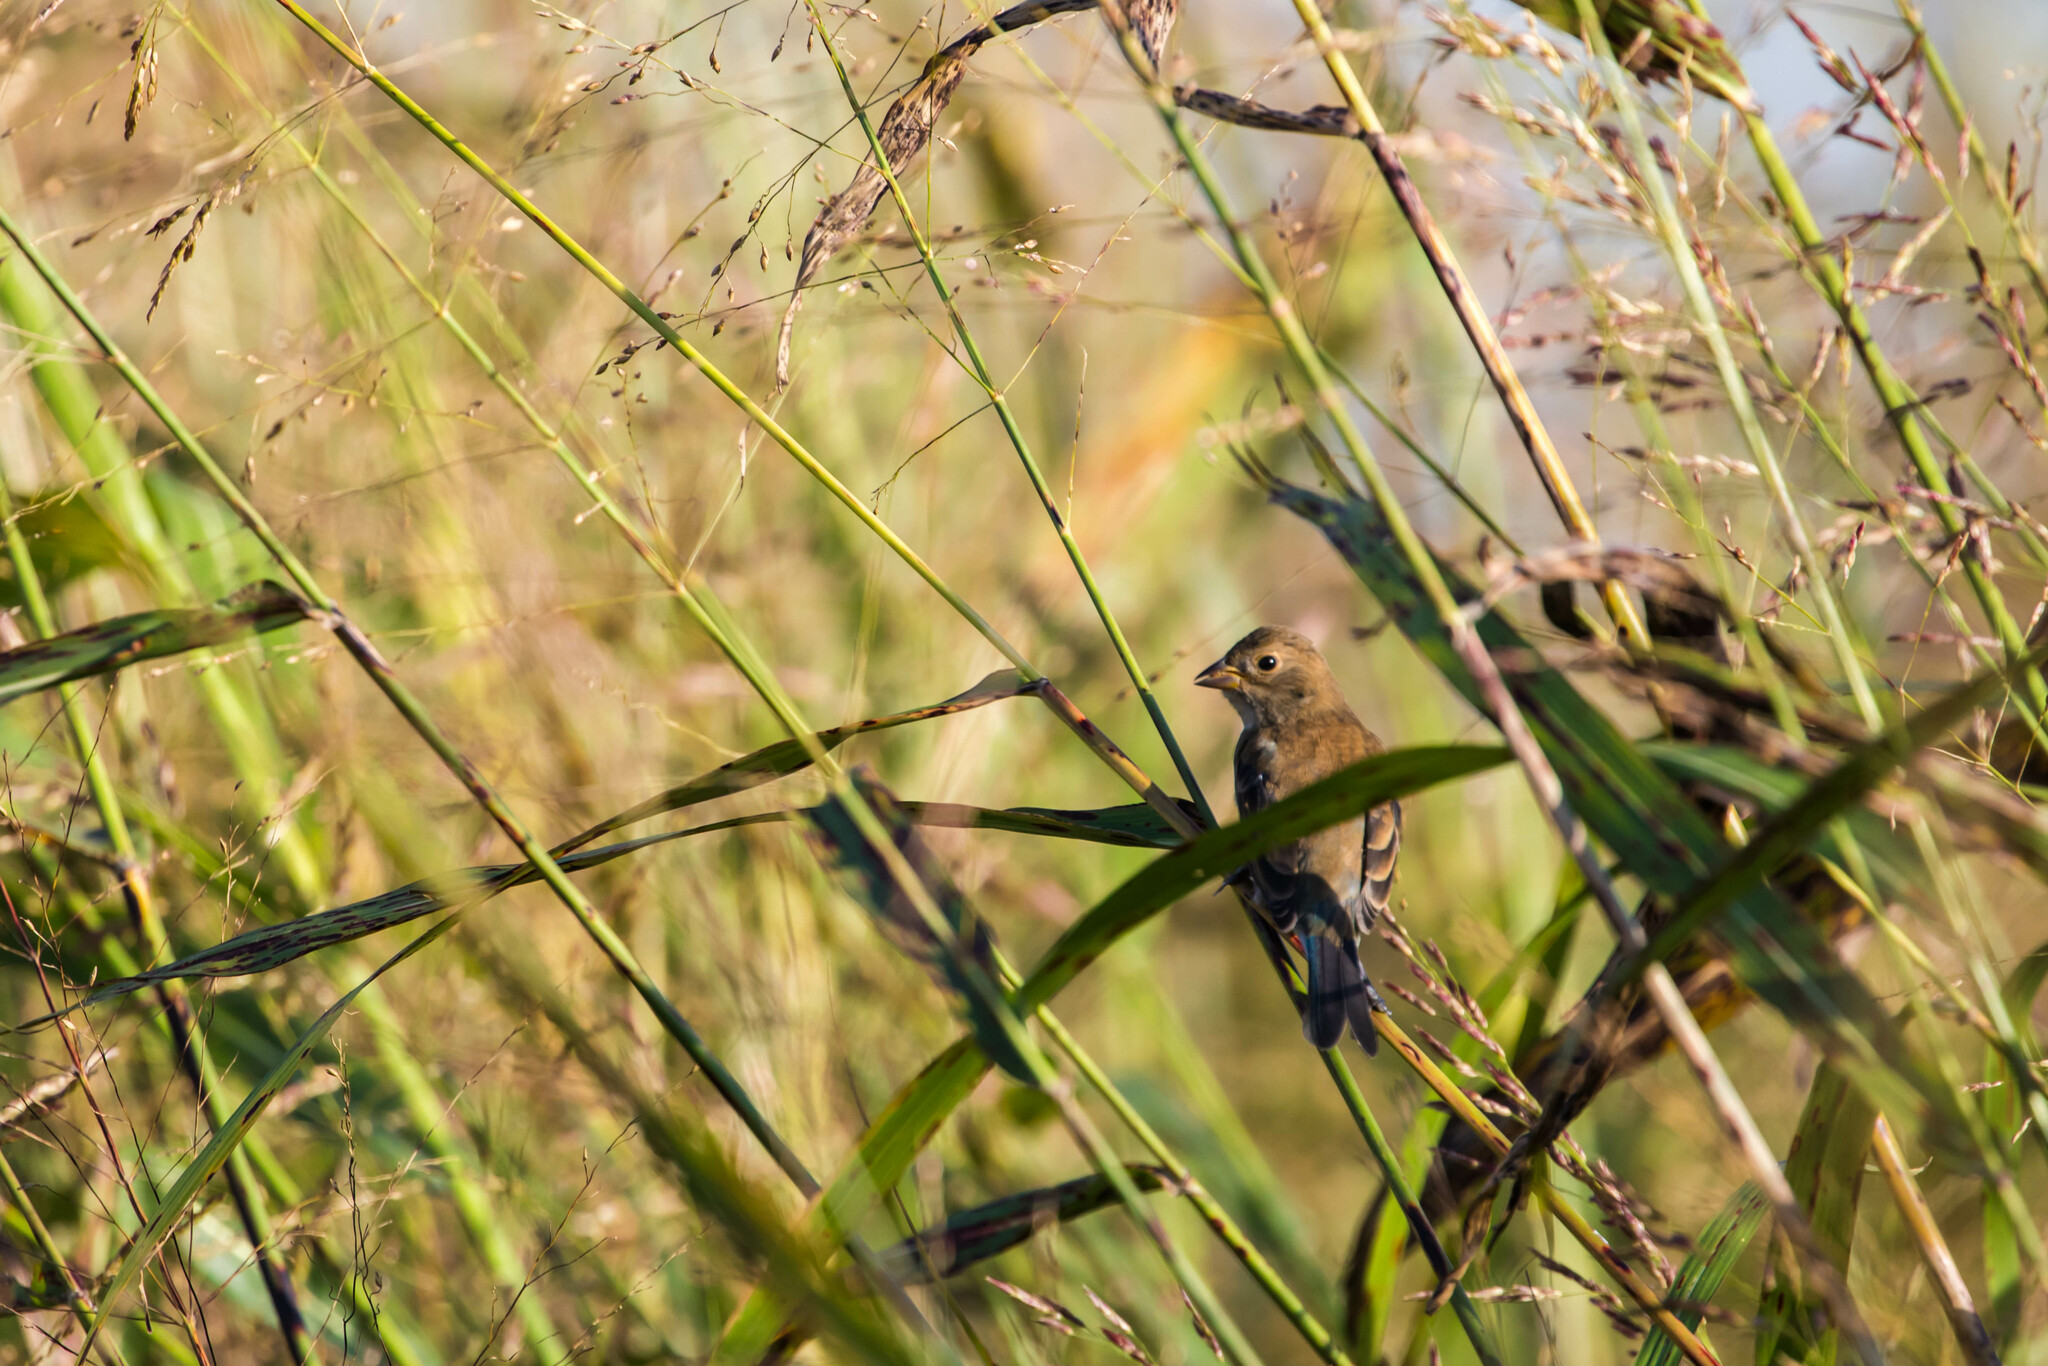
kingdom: Animalia
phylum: Chordata
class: Aves
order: Passeriformes
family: Cardinalidae
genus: Passerina
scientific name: Passerina cyanea
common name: Indigo bunting
